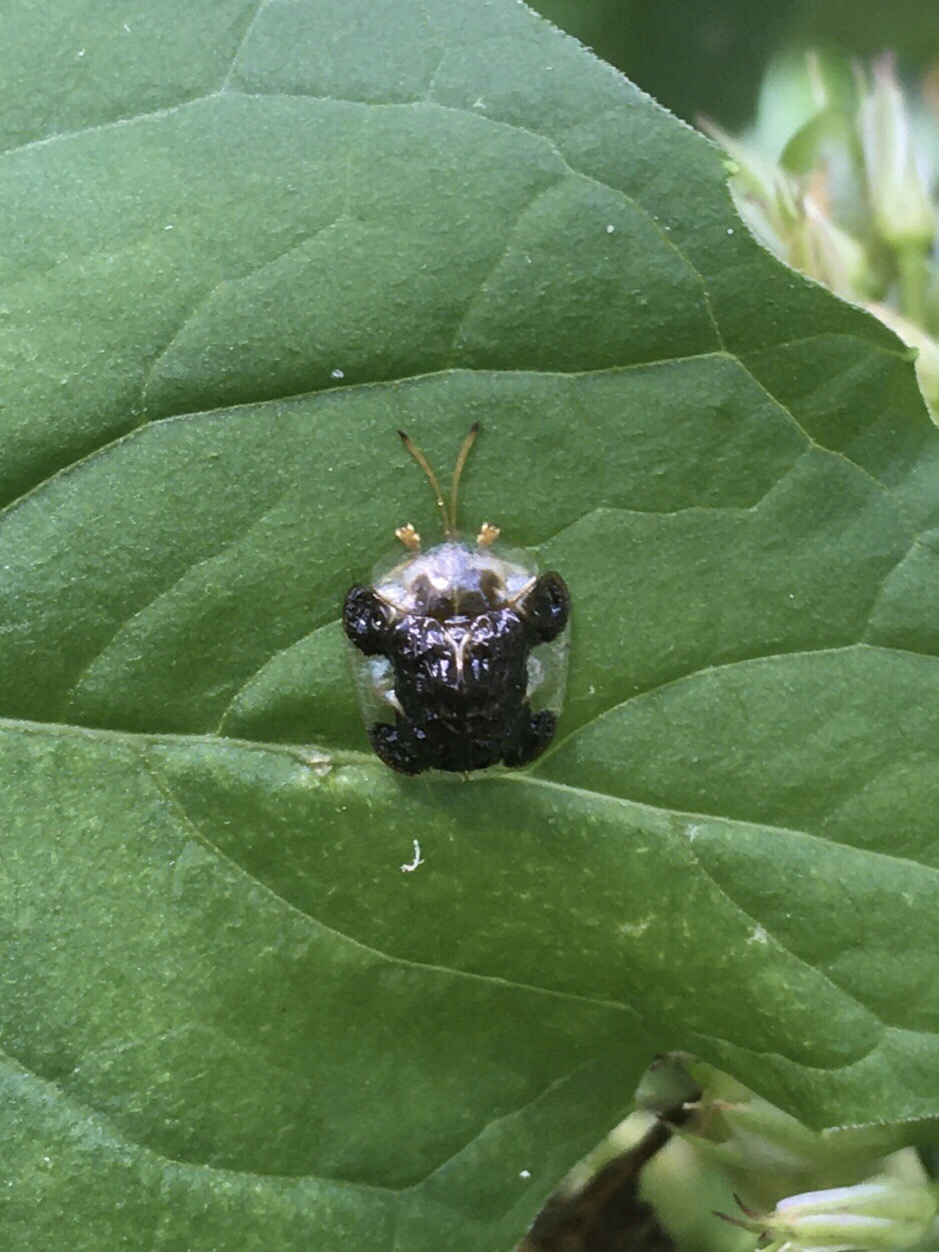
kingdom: Animalia
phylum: Arthropoda
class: Insecta
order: Coleoptera
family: Chrysomelidae
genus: Helocassis
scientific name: Helocassis clavata
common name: Clavate tortoise beetle
